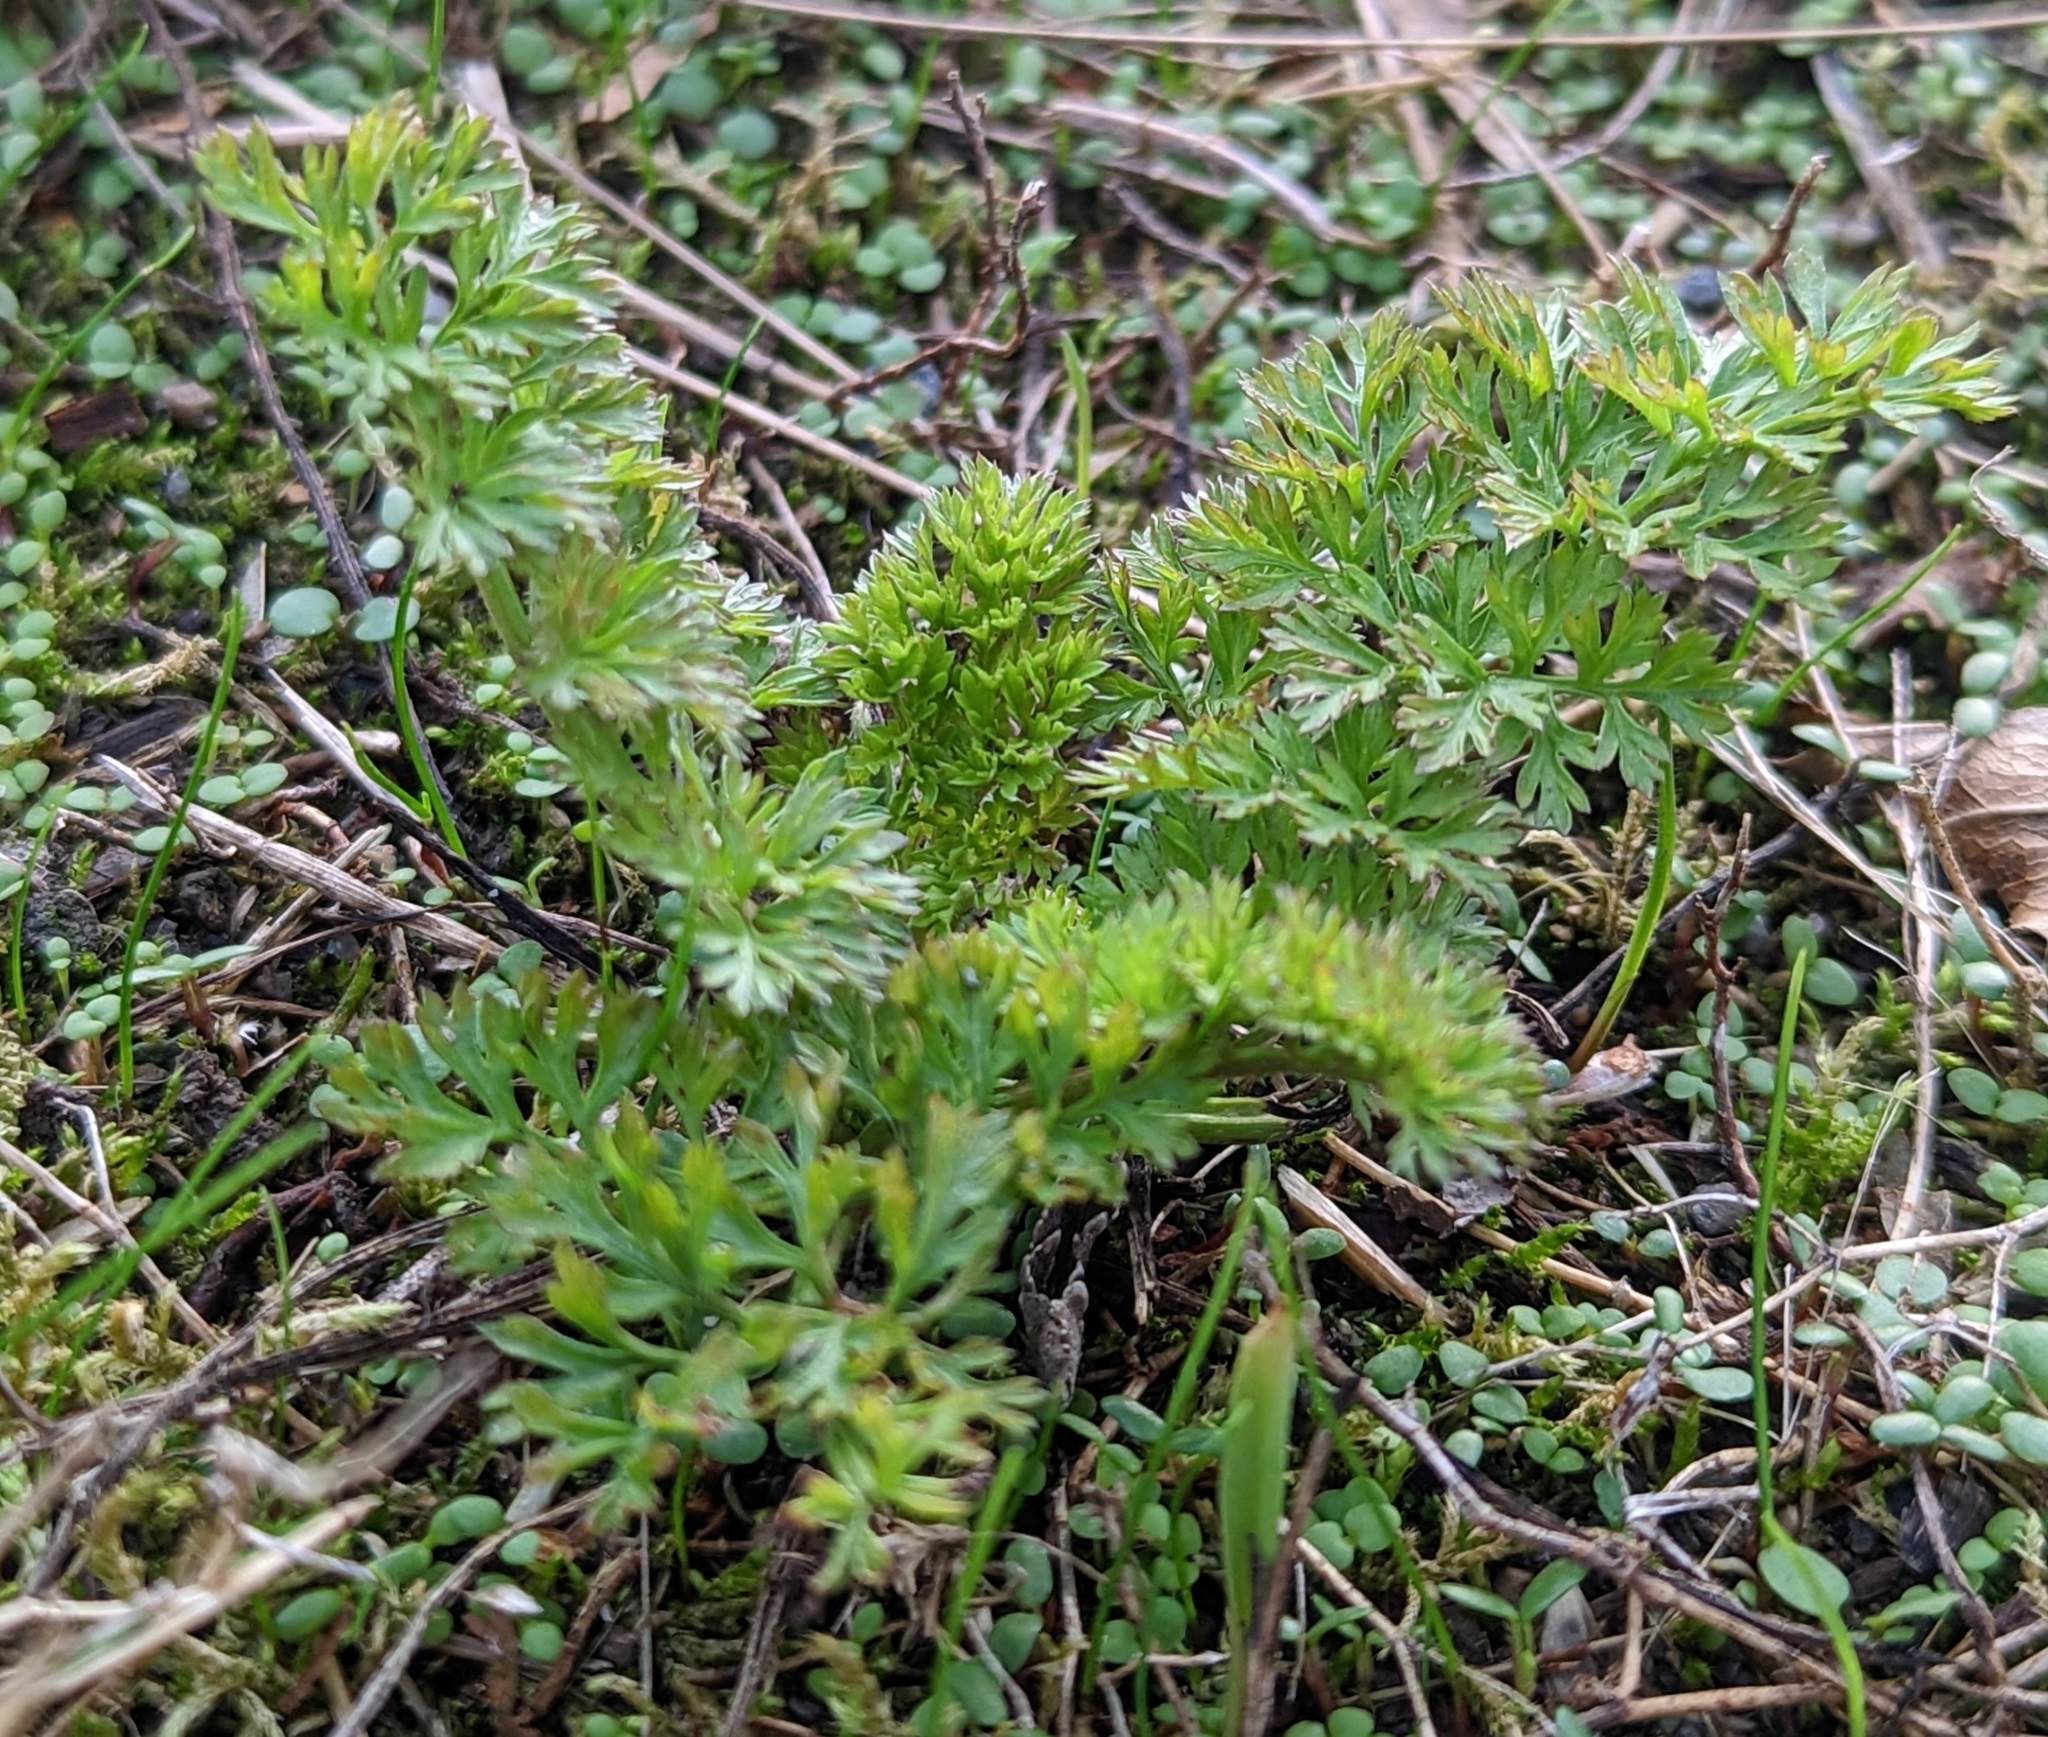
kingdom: Plantae
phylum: Tracheophyta
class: Magnoliopsida
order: Apiales
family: Apiaceae
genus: Daucus
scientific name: Daucus carota
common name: Wild carrot
